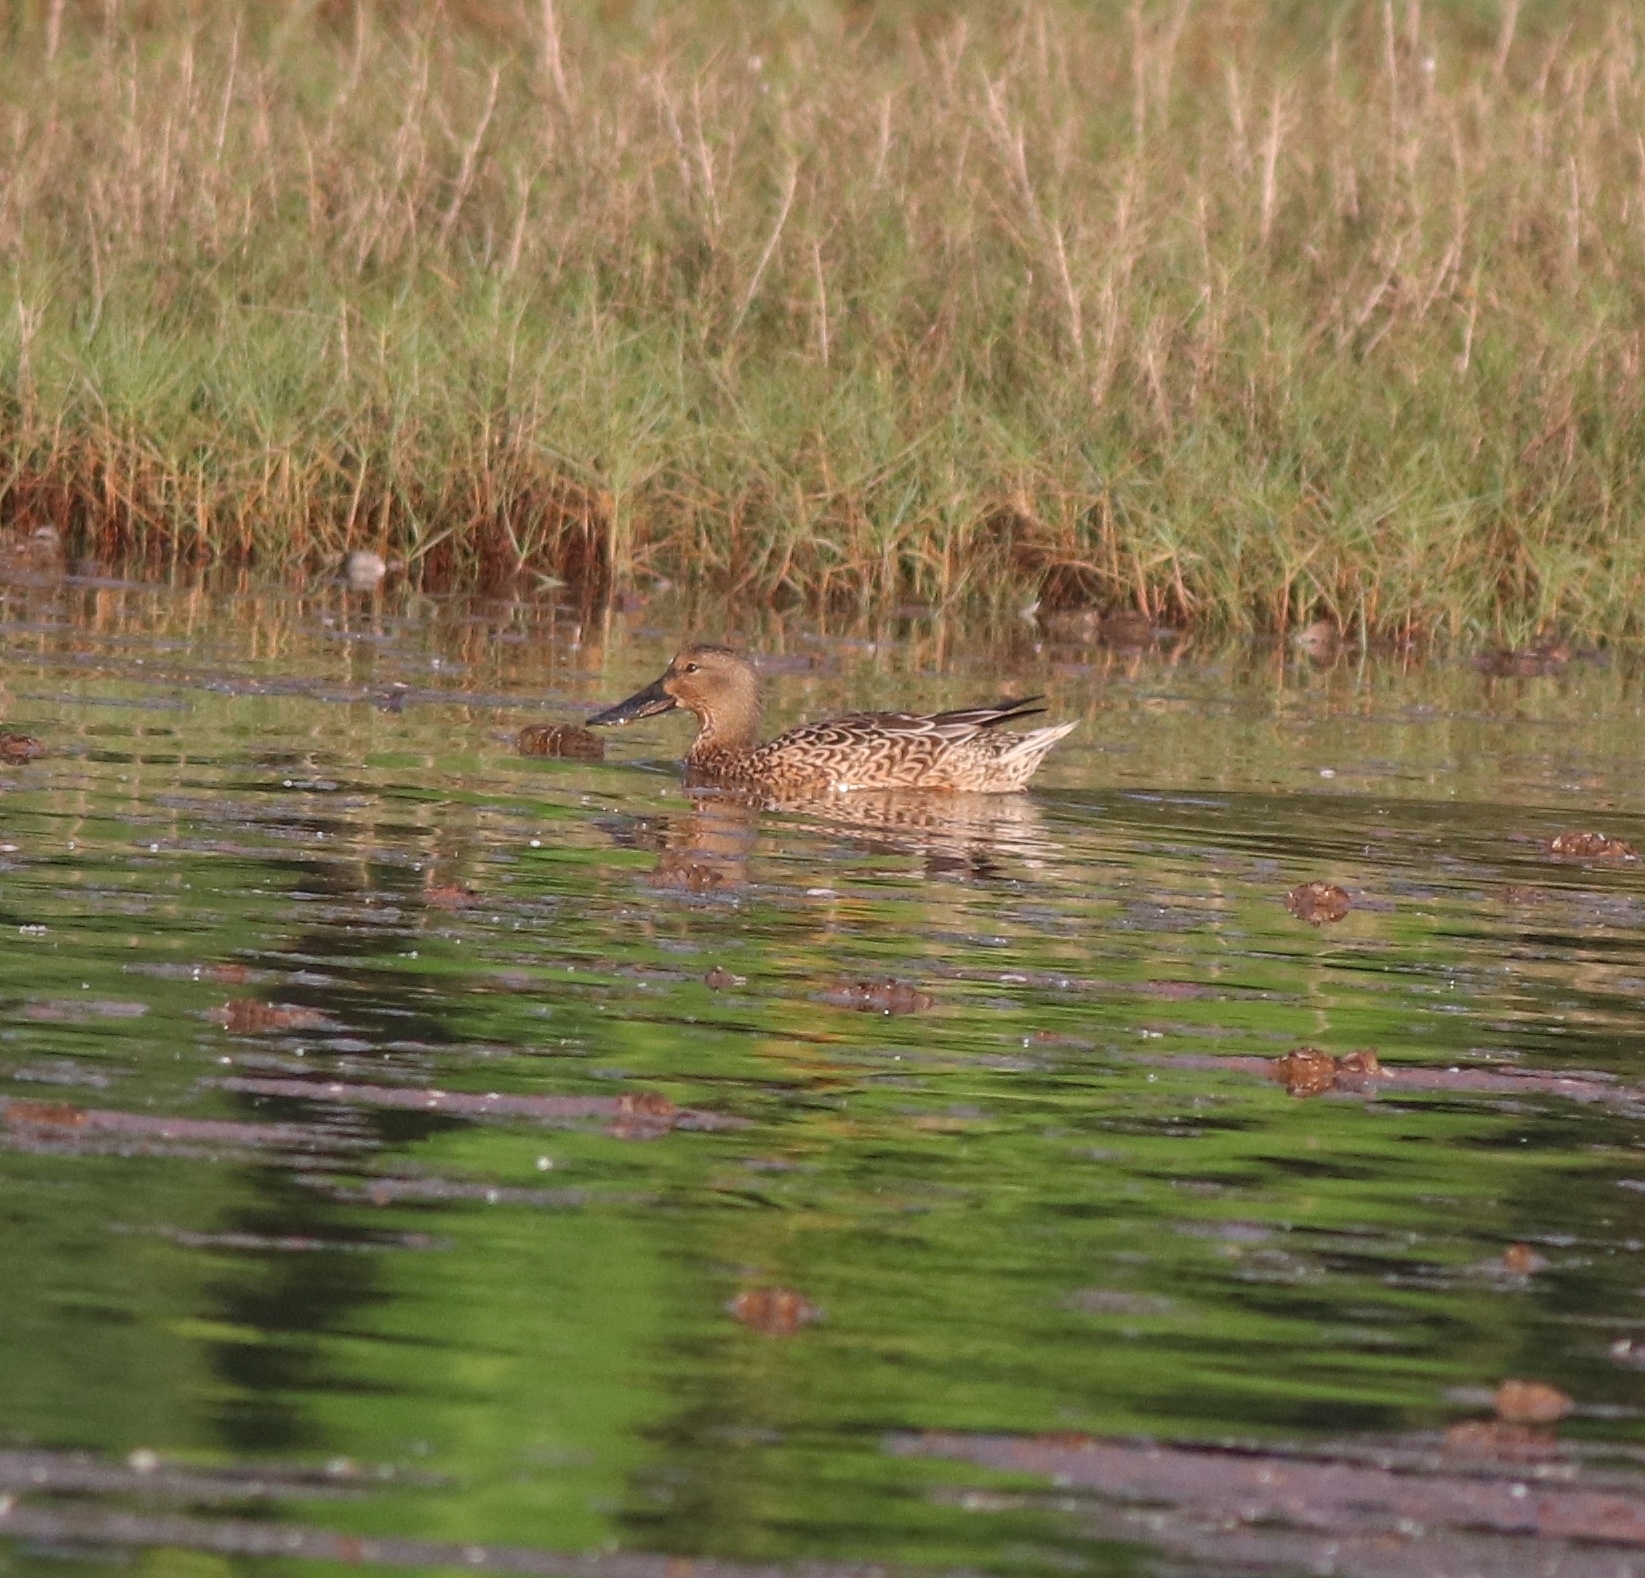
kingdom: Animalia
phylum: Chordata
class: Aves
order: Anseriformes
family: Anatidae
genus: Spatula
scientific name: Spatula clypeata
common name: Northern shoveler
